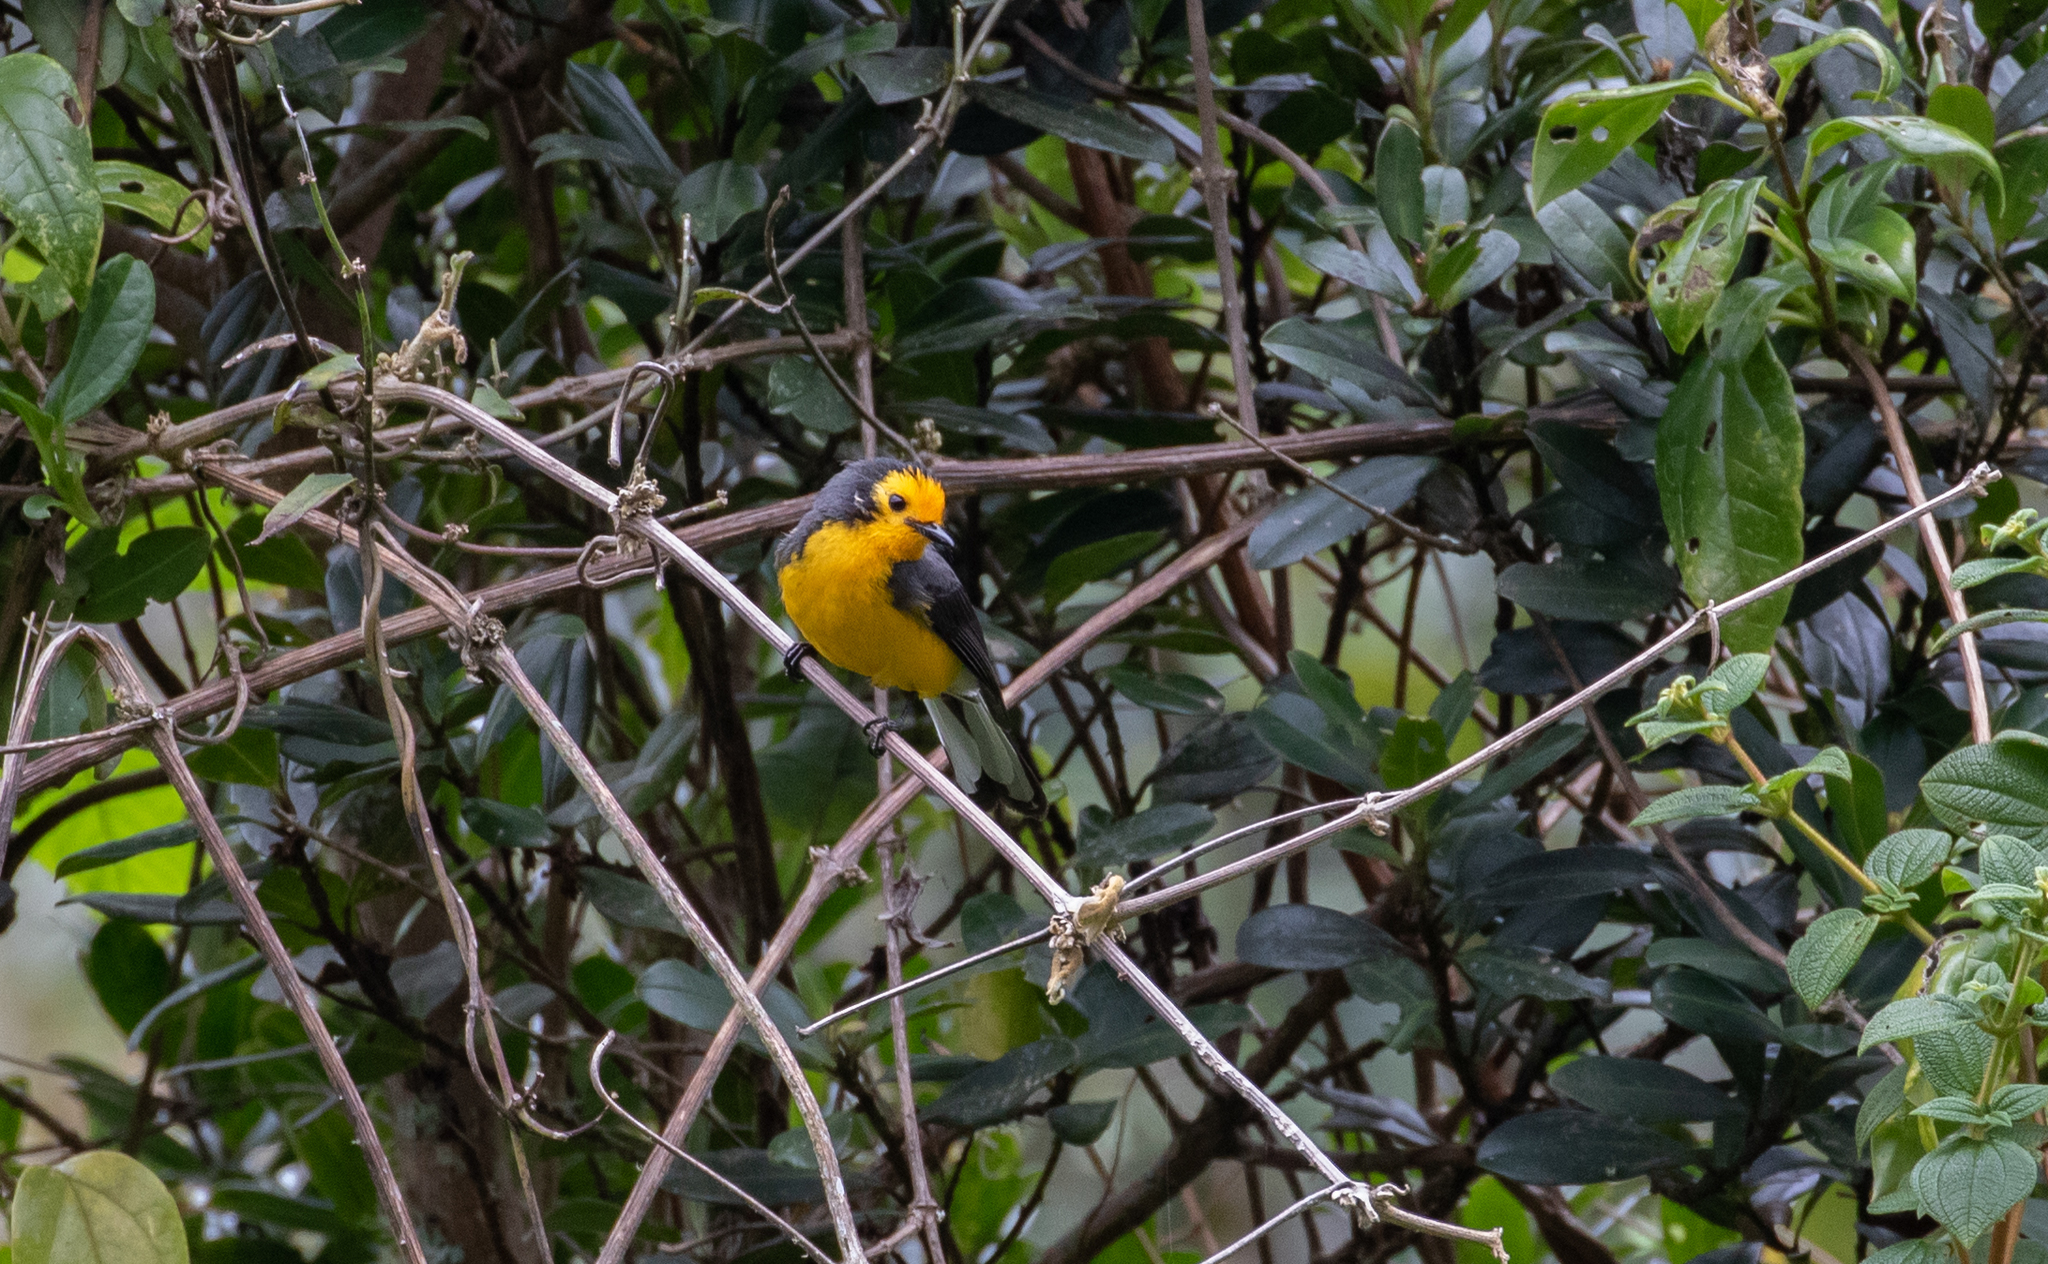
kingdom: Animalia
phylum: Chordata
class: Aves
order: Passeriformes
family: Parulidae
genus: Myioborus
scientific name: Myioborus ornatus
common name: Golden-fronted whitestart
